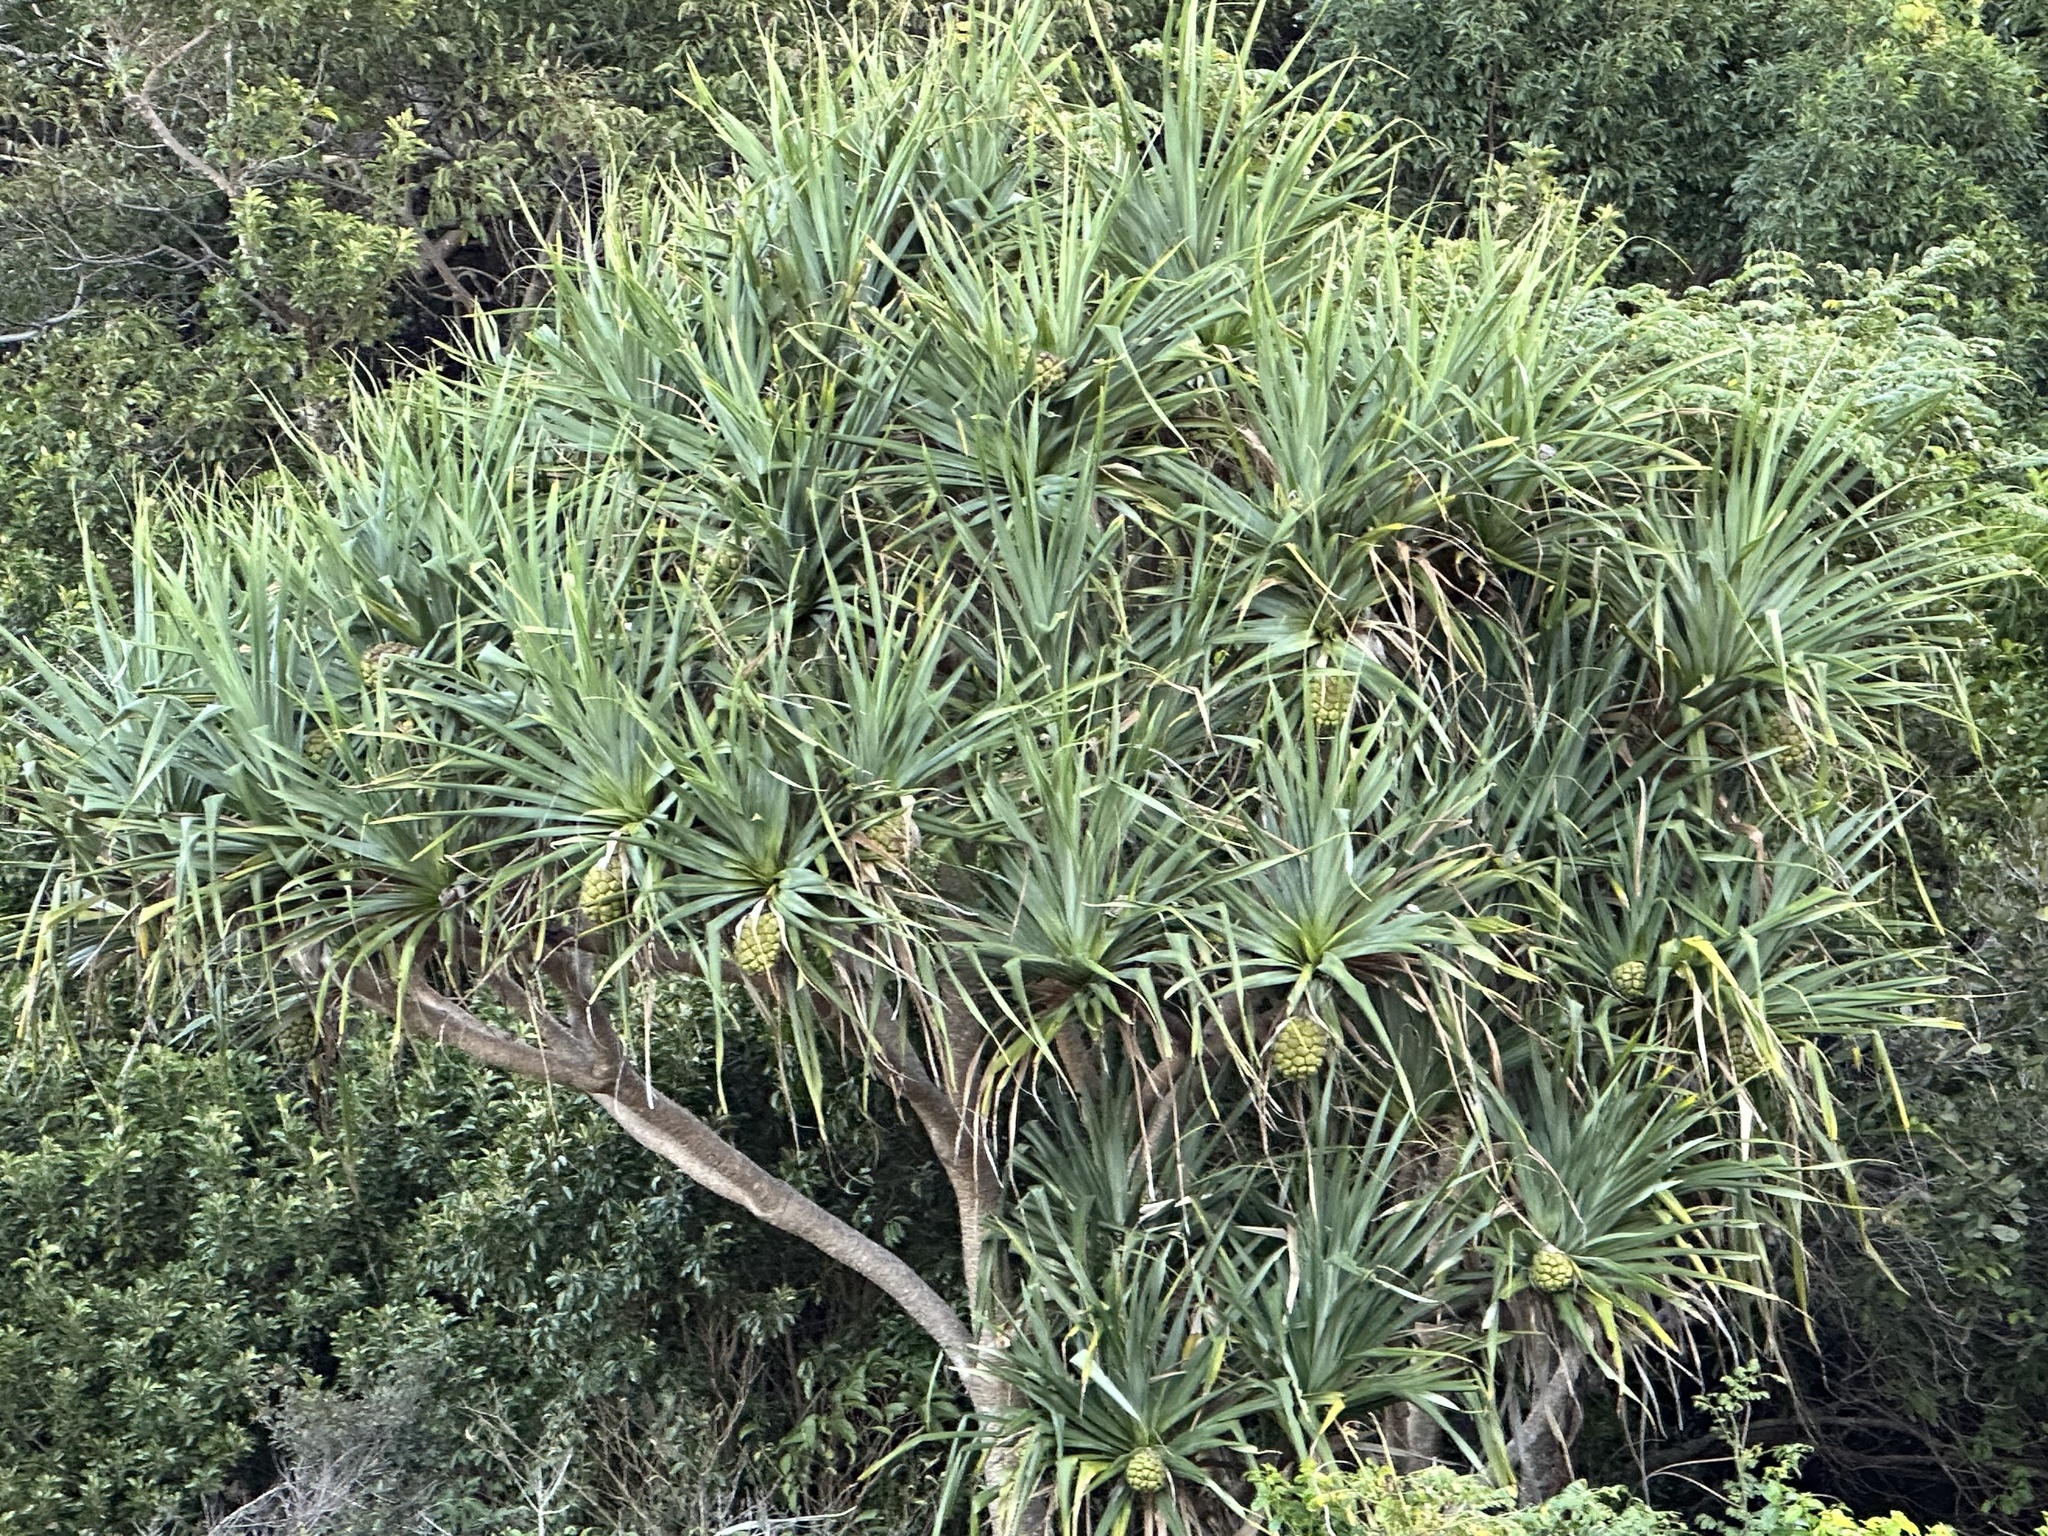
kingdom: Plantae
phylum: Tracheophyta
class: Liliopsida
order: Pandanales
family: Pandanaceae
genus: Pandanus
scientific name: Pandanus tectorius
